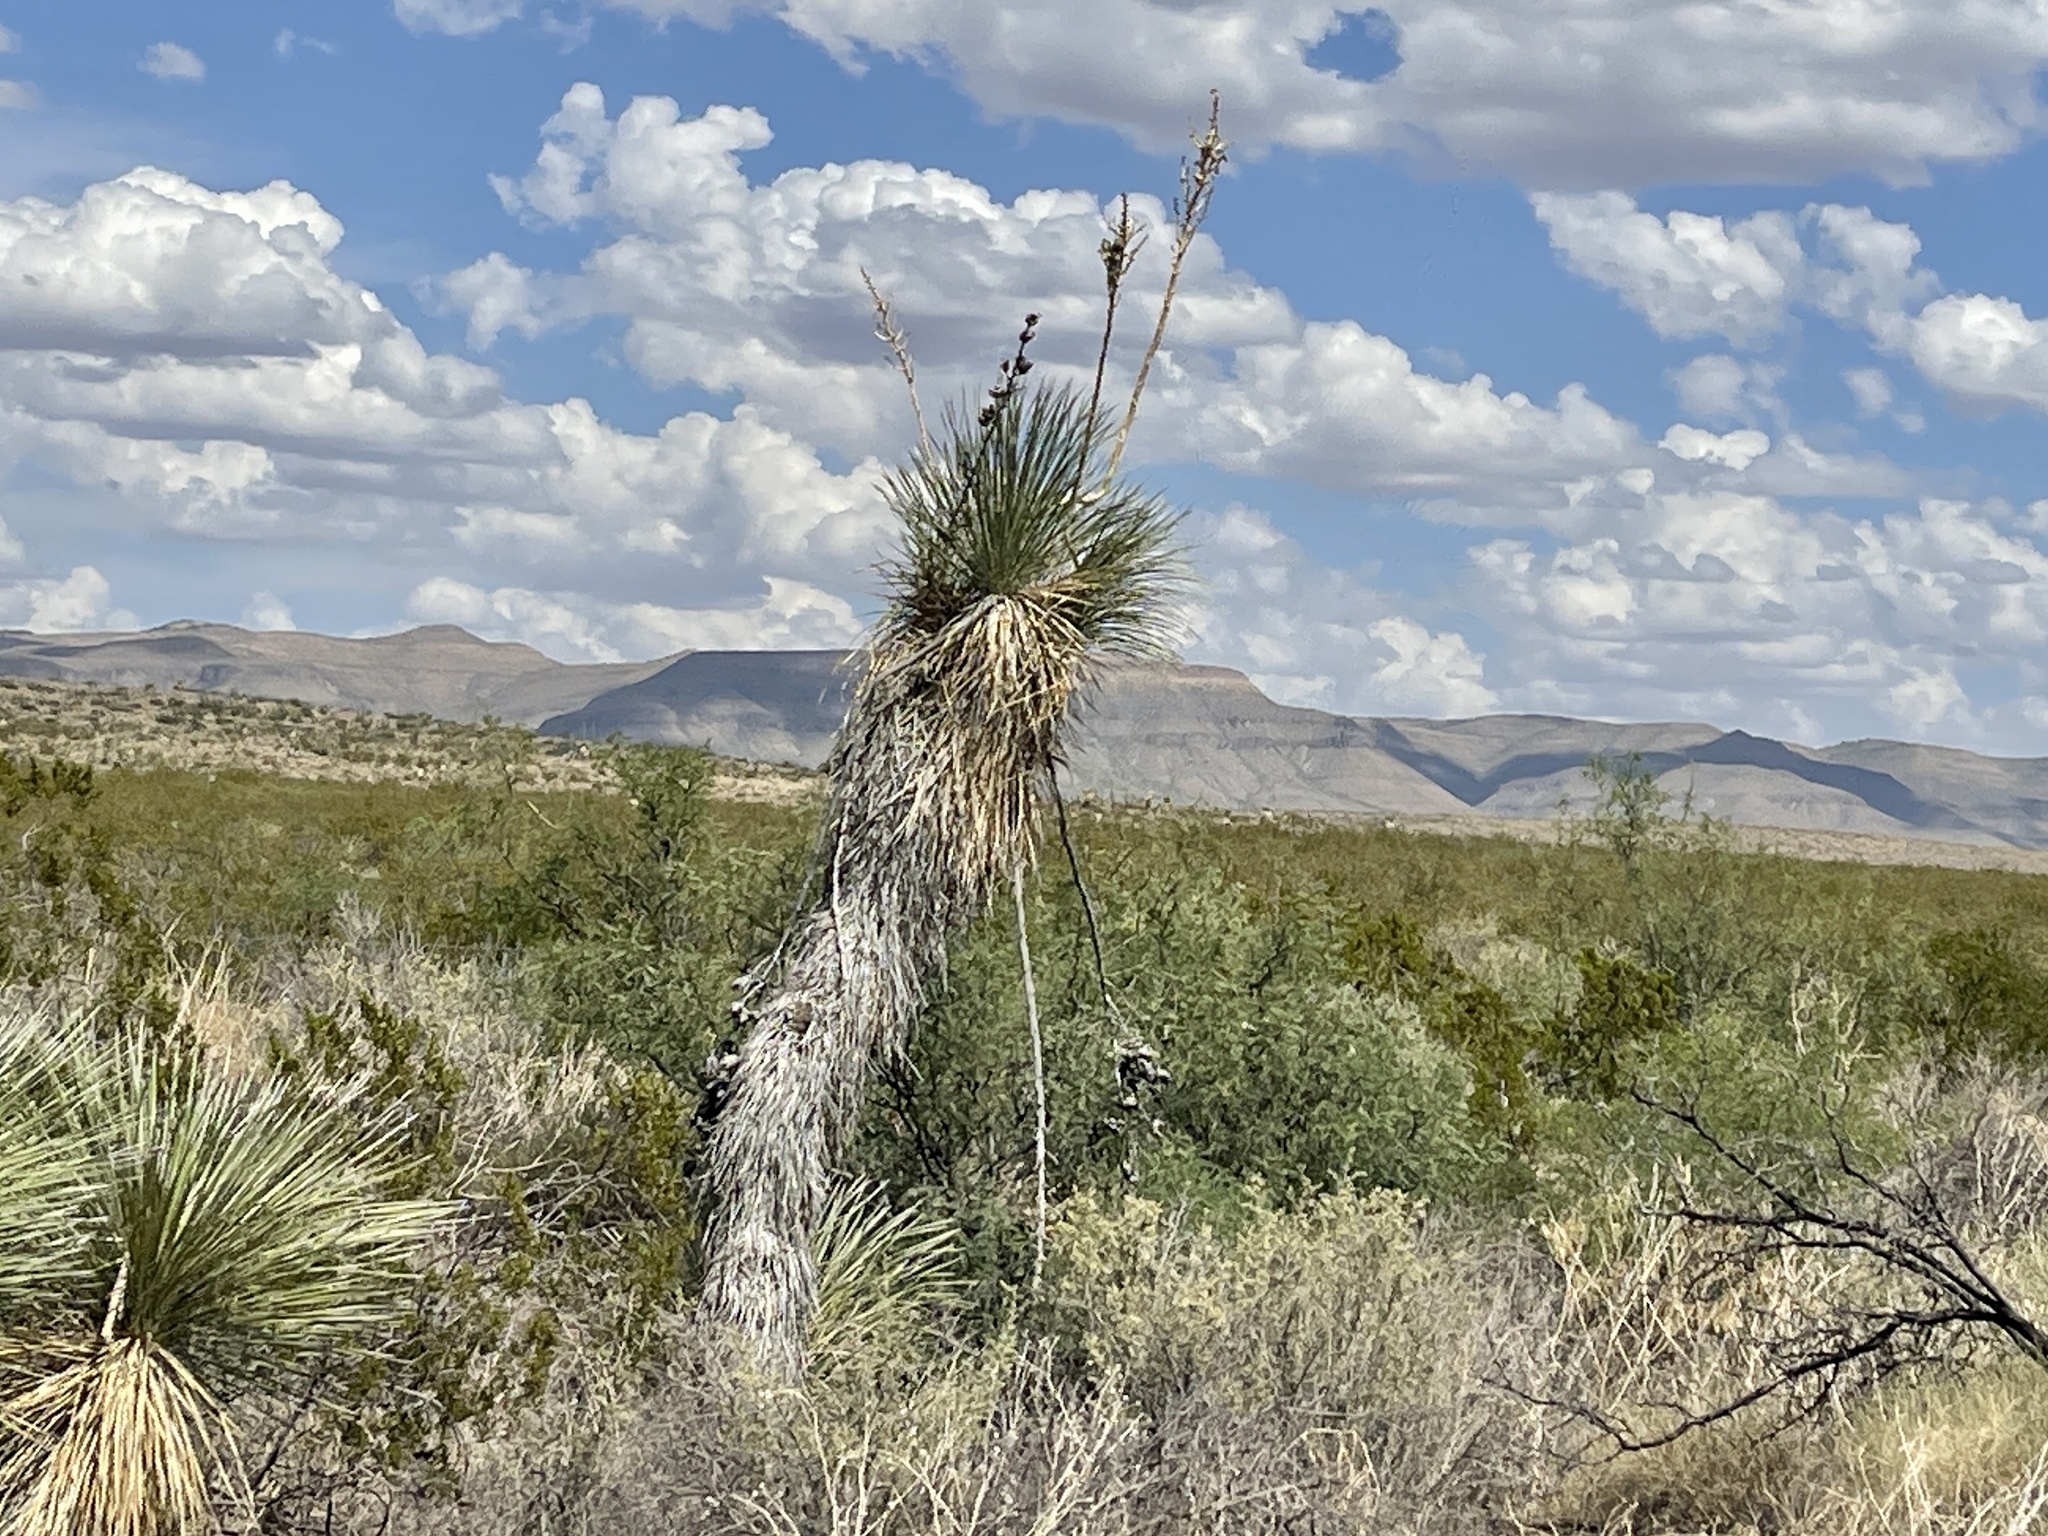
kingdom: Plantae
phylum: Tracheophyta
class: Liliopsida
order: Asparagales
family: Asparagaceae
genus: Yucca
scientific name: Yucca elata
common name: Palmella
